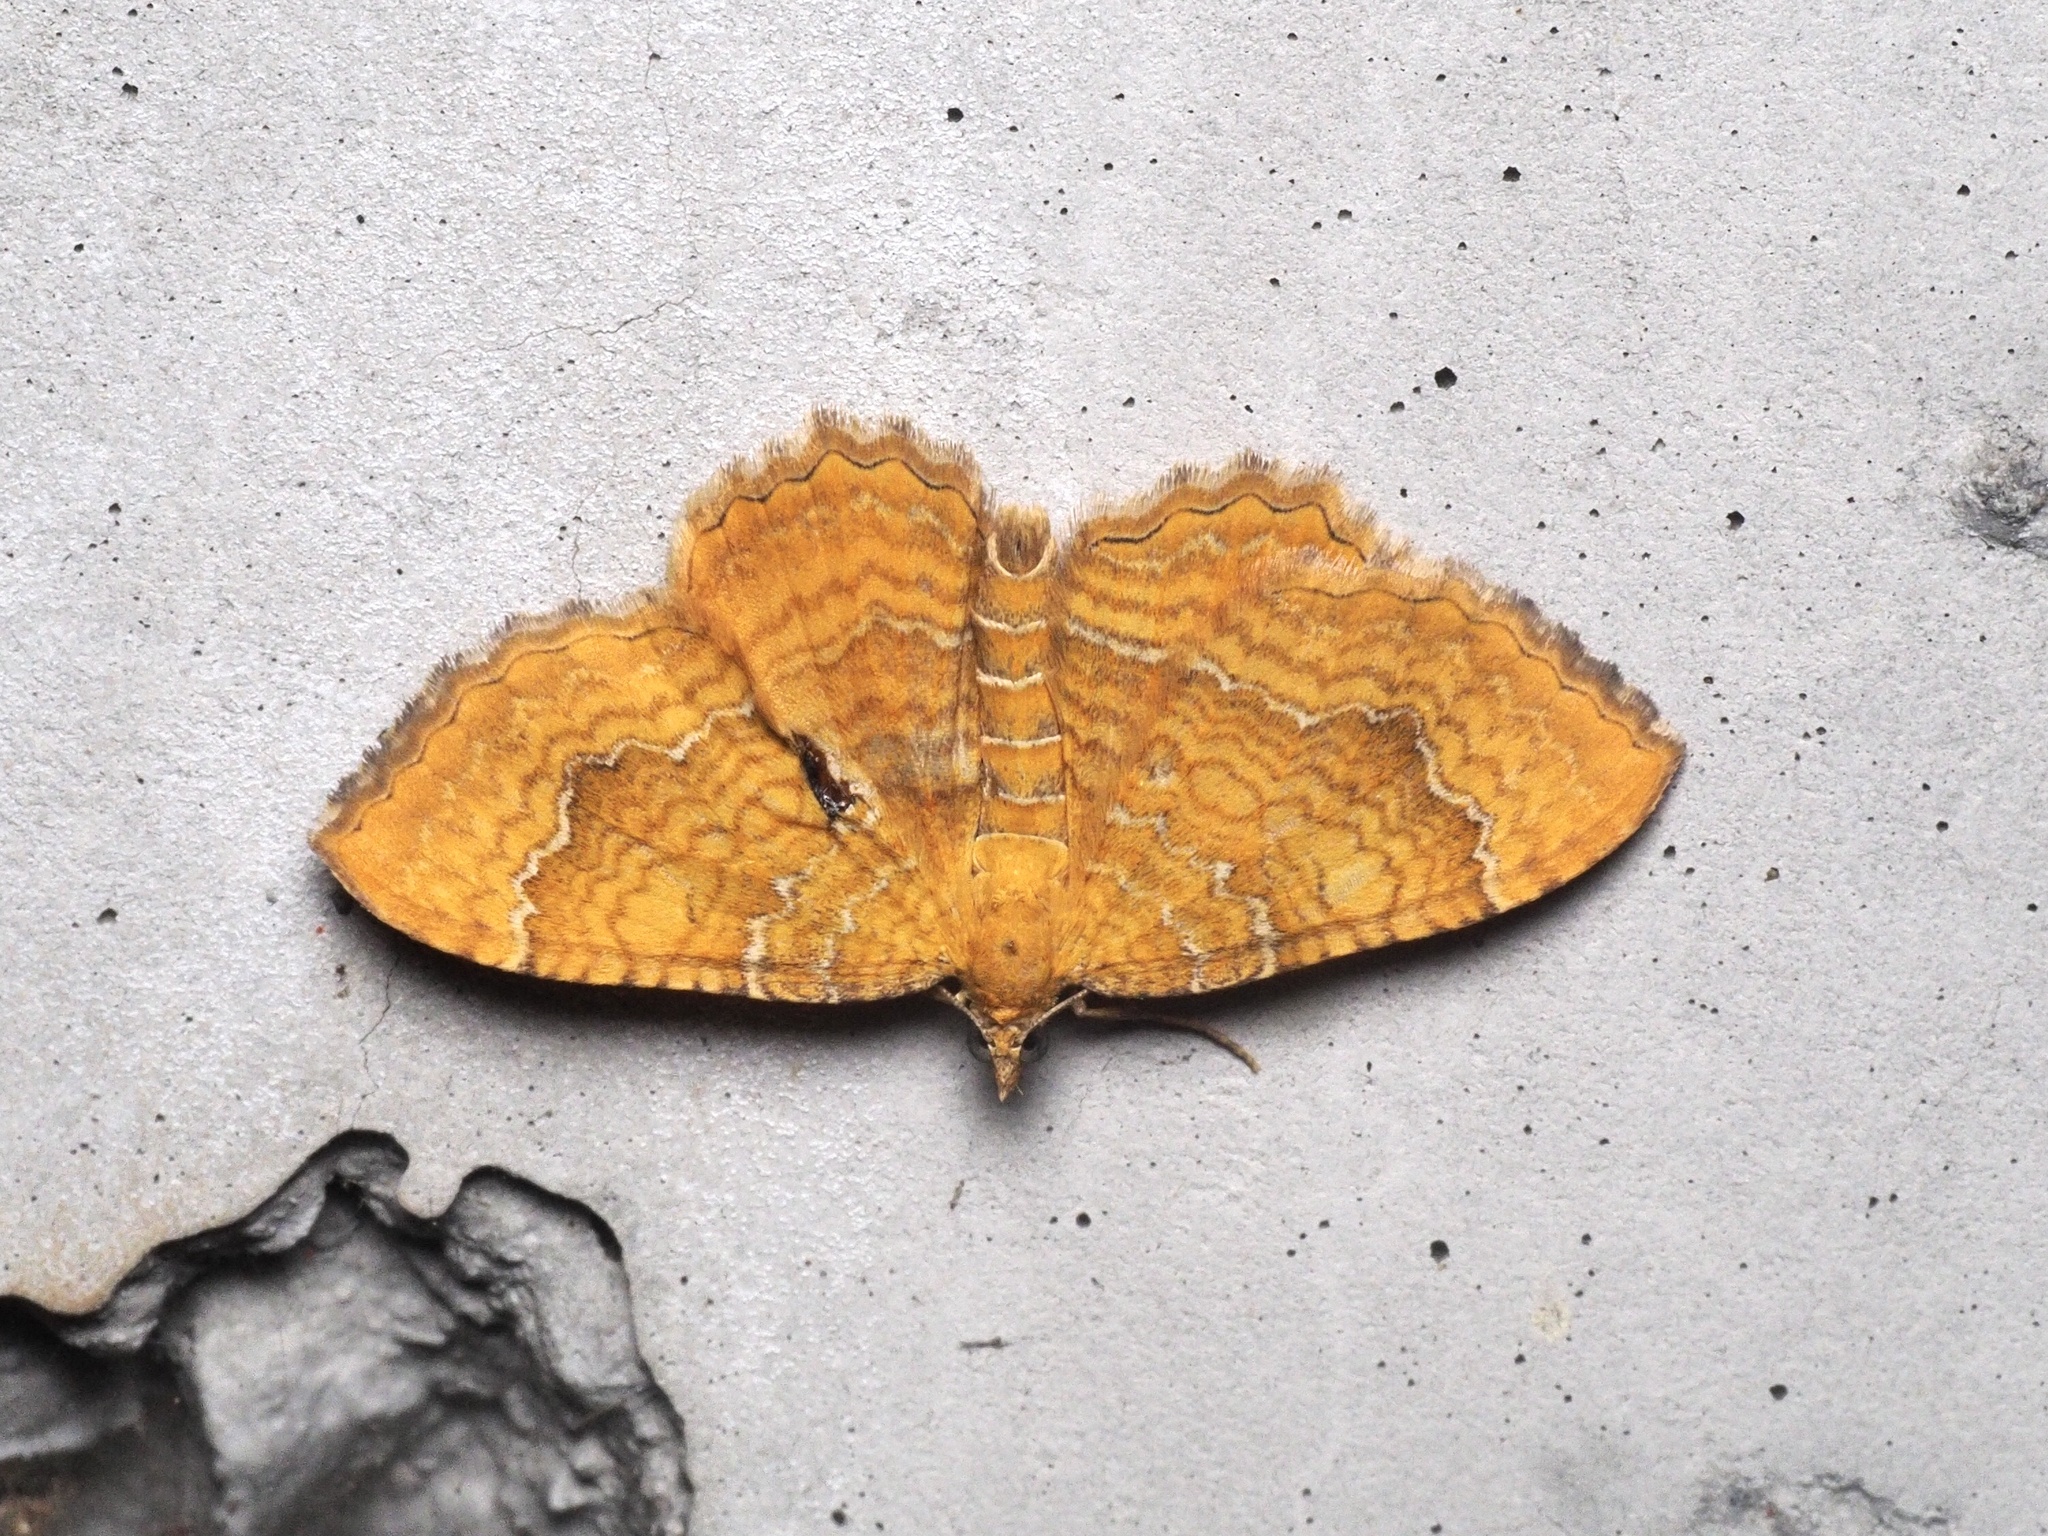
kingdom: Animalia
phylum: Arthropoda
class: Insecta
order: Lepidoptera
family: Geometridae
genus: Camptogramma
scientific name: Camptogramma bilineata
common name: Yellow shell
